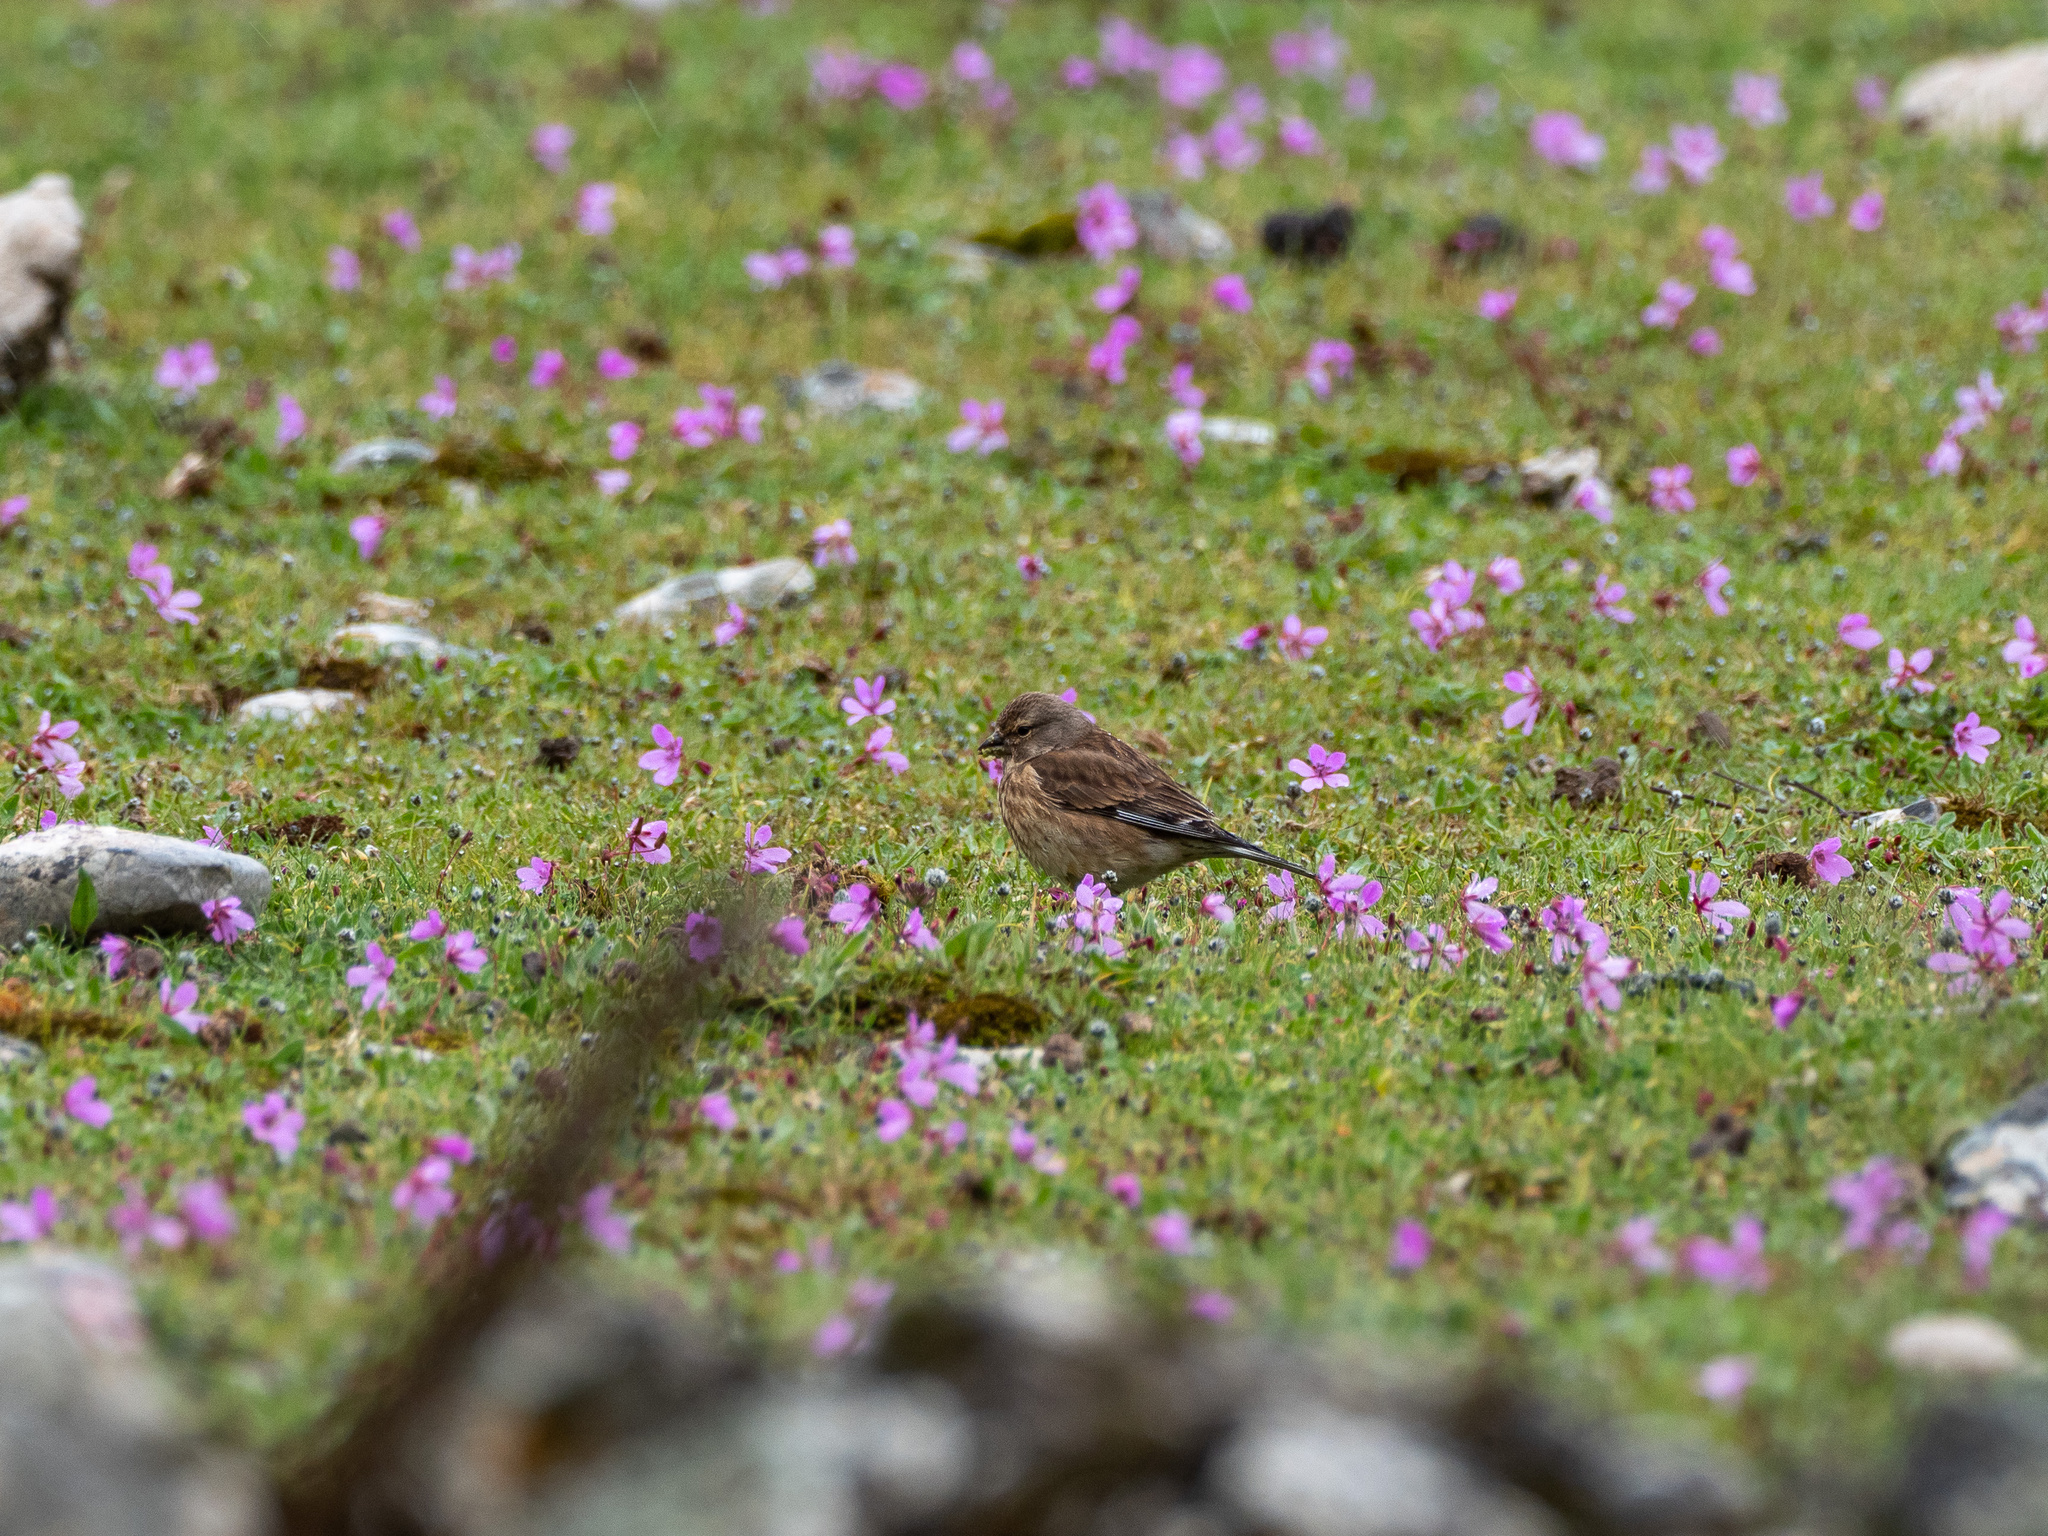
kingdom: Animalia
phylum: Chordata
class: Aves
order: Passeriformes
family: Fringillidae
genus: Linaria
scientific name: Linaria cannabina
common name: Common linnet
